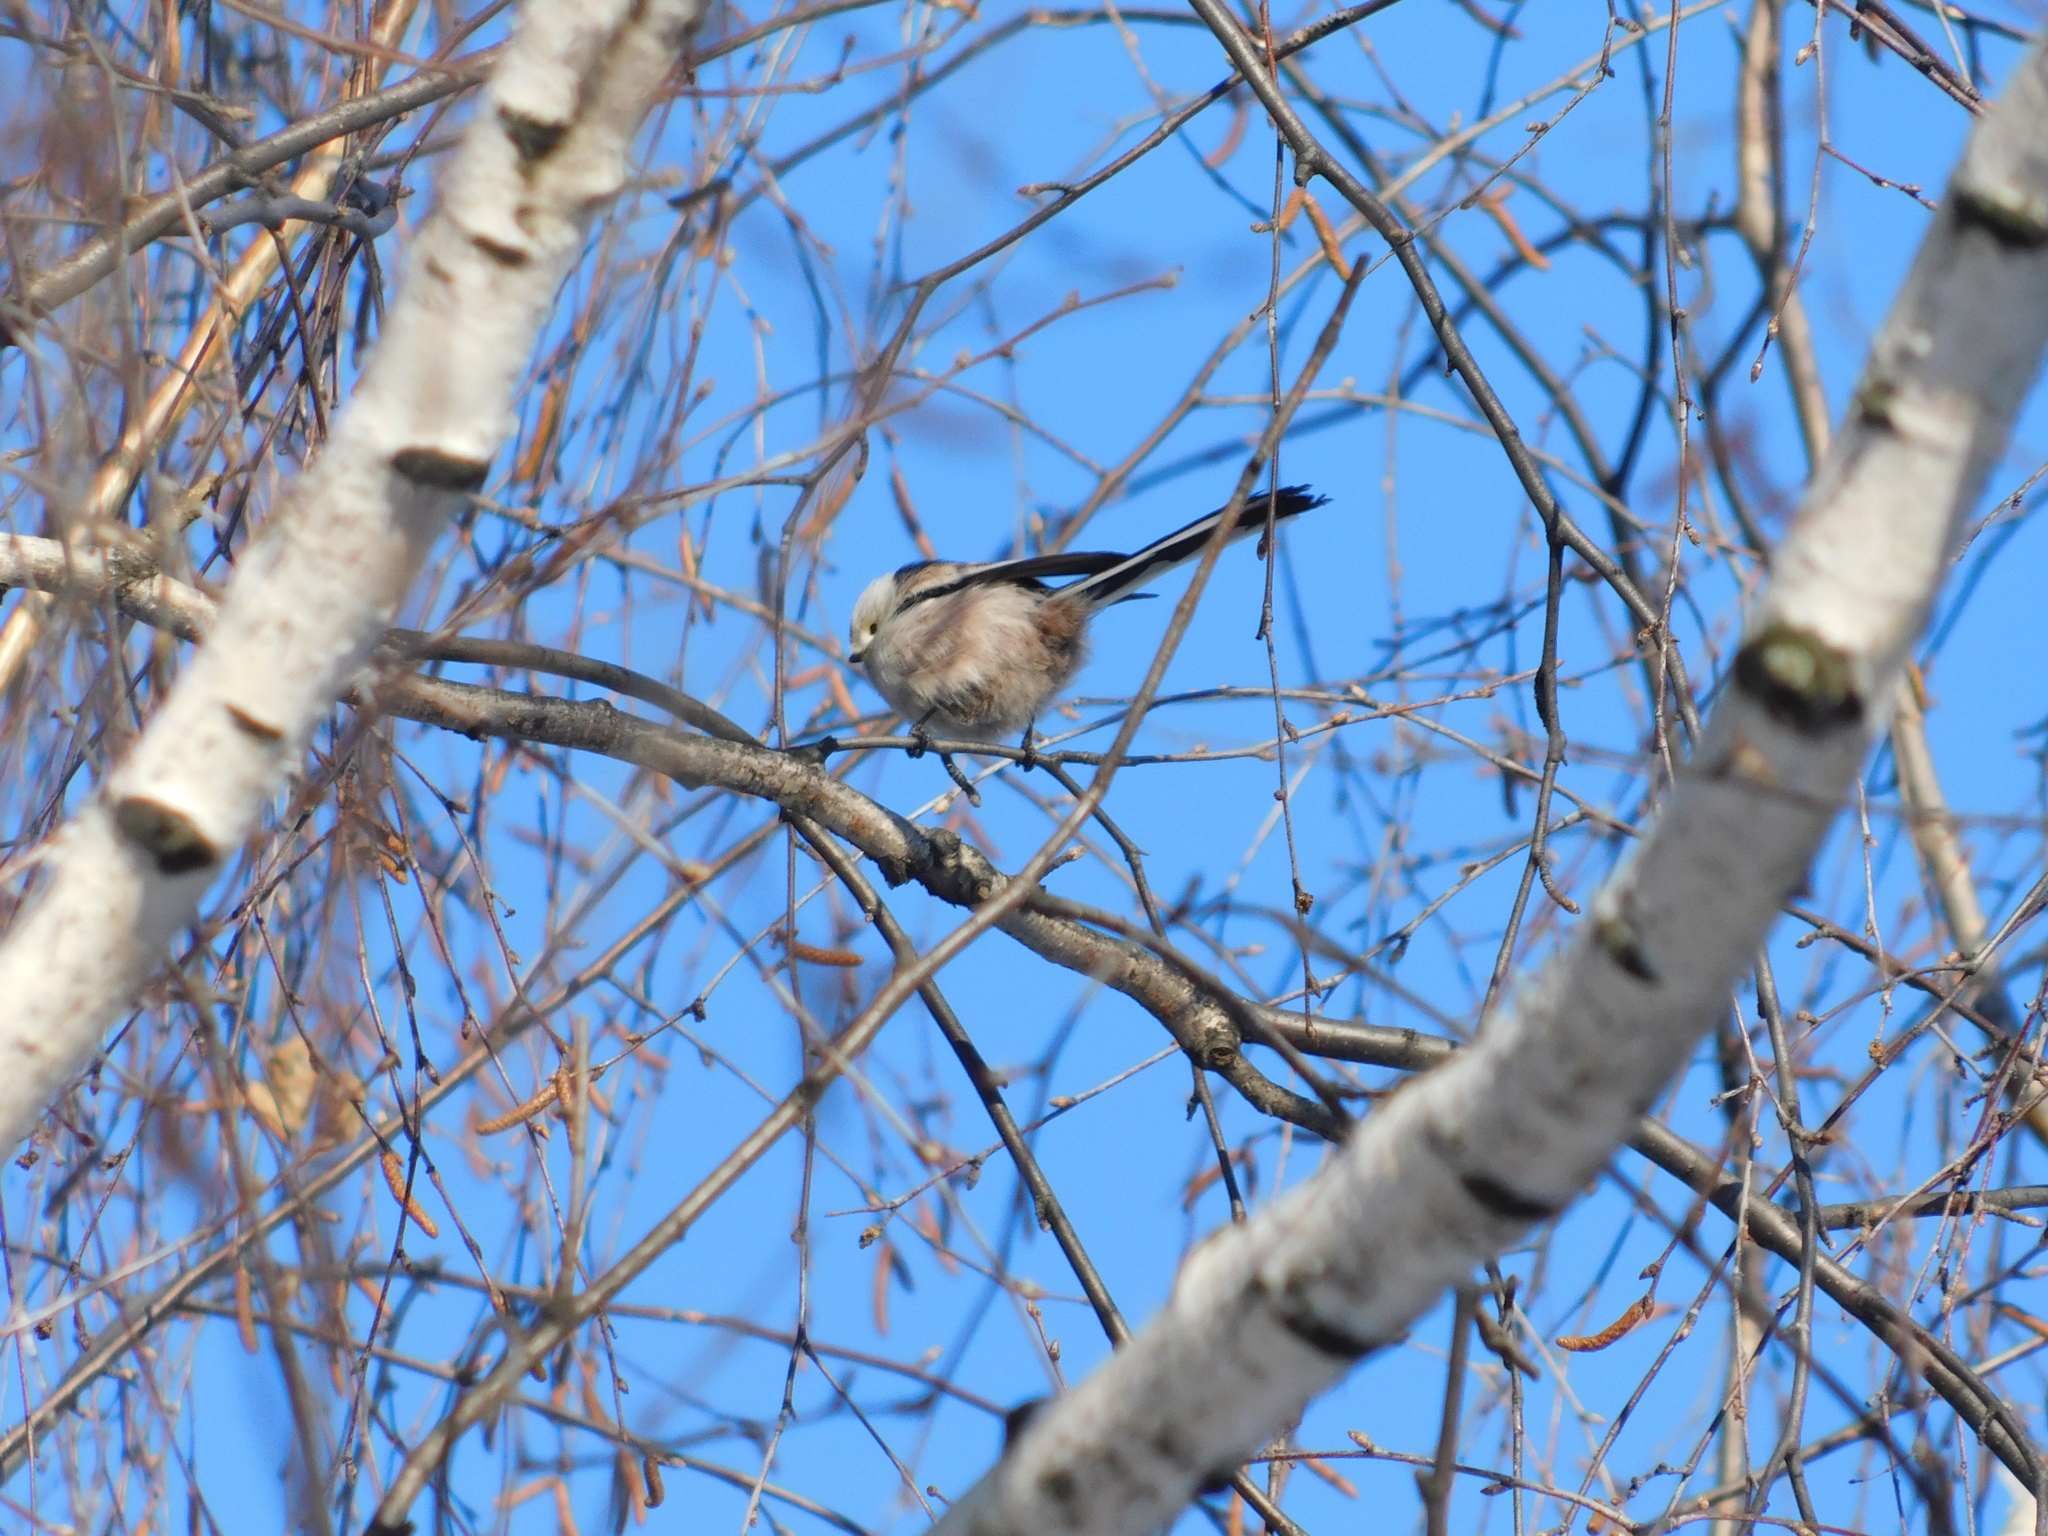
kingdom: Animalia
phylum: Chordata
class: Aves
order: Passeriformes
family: Aegithalidae
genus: Aegithalos
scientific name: Aegithalos caudatus
